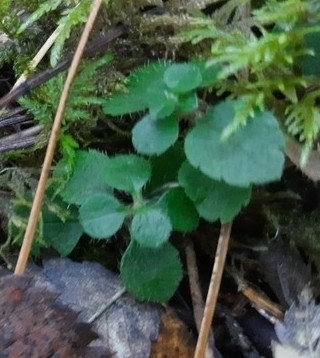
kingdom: Plantae
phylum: Tracheophyta
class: Magnoliopsida
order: Dipsacales
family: Caprifoliaceae
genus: Linnaea
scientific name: Linnaea borealis
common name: Twinflower
